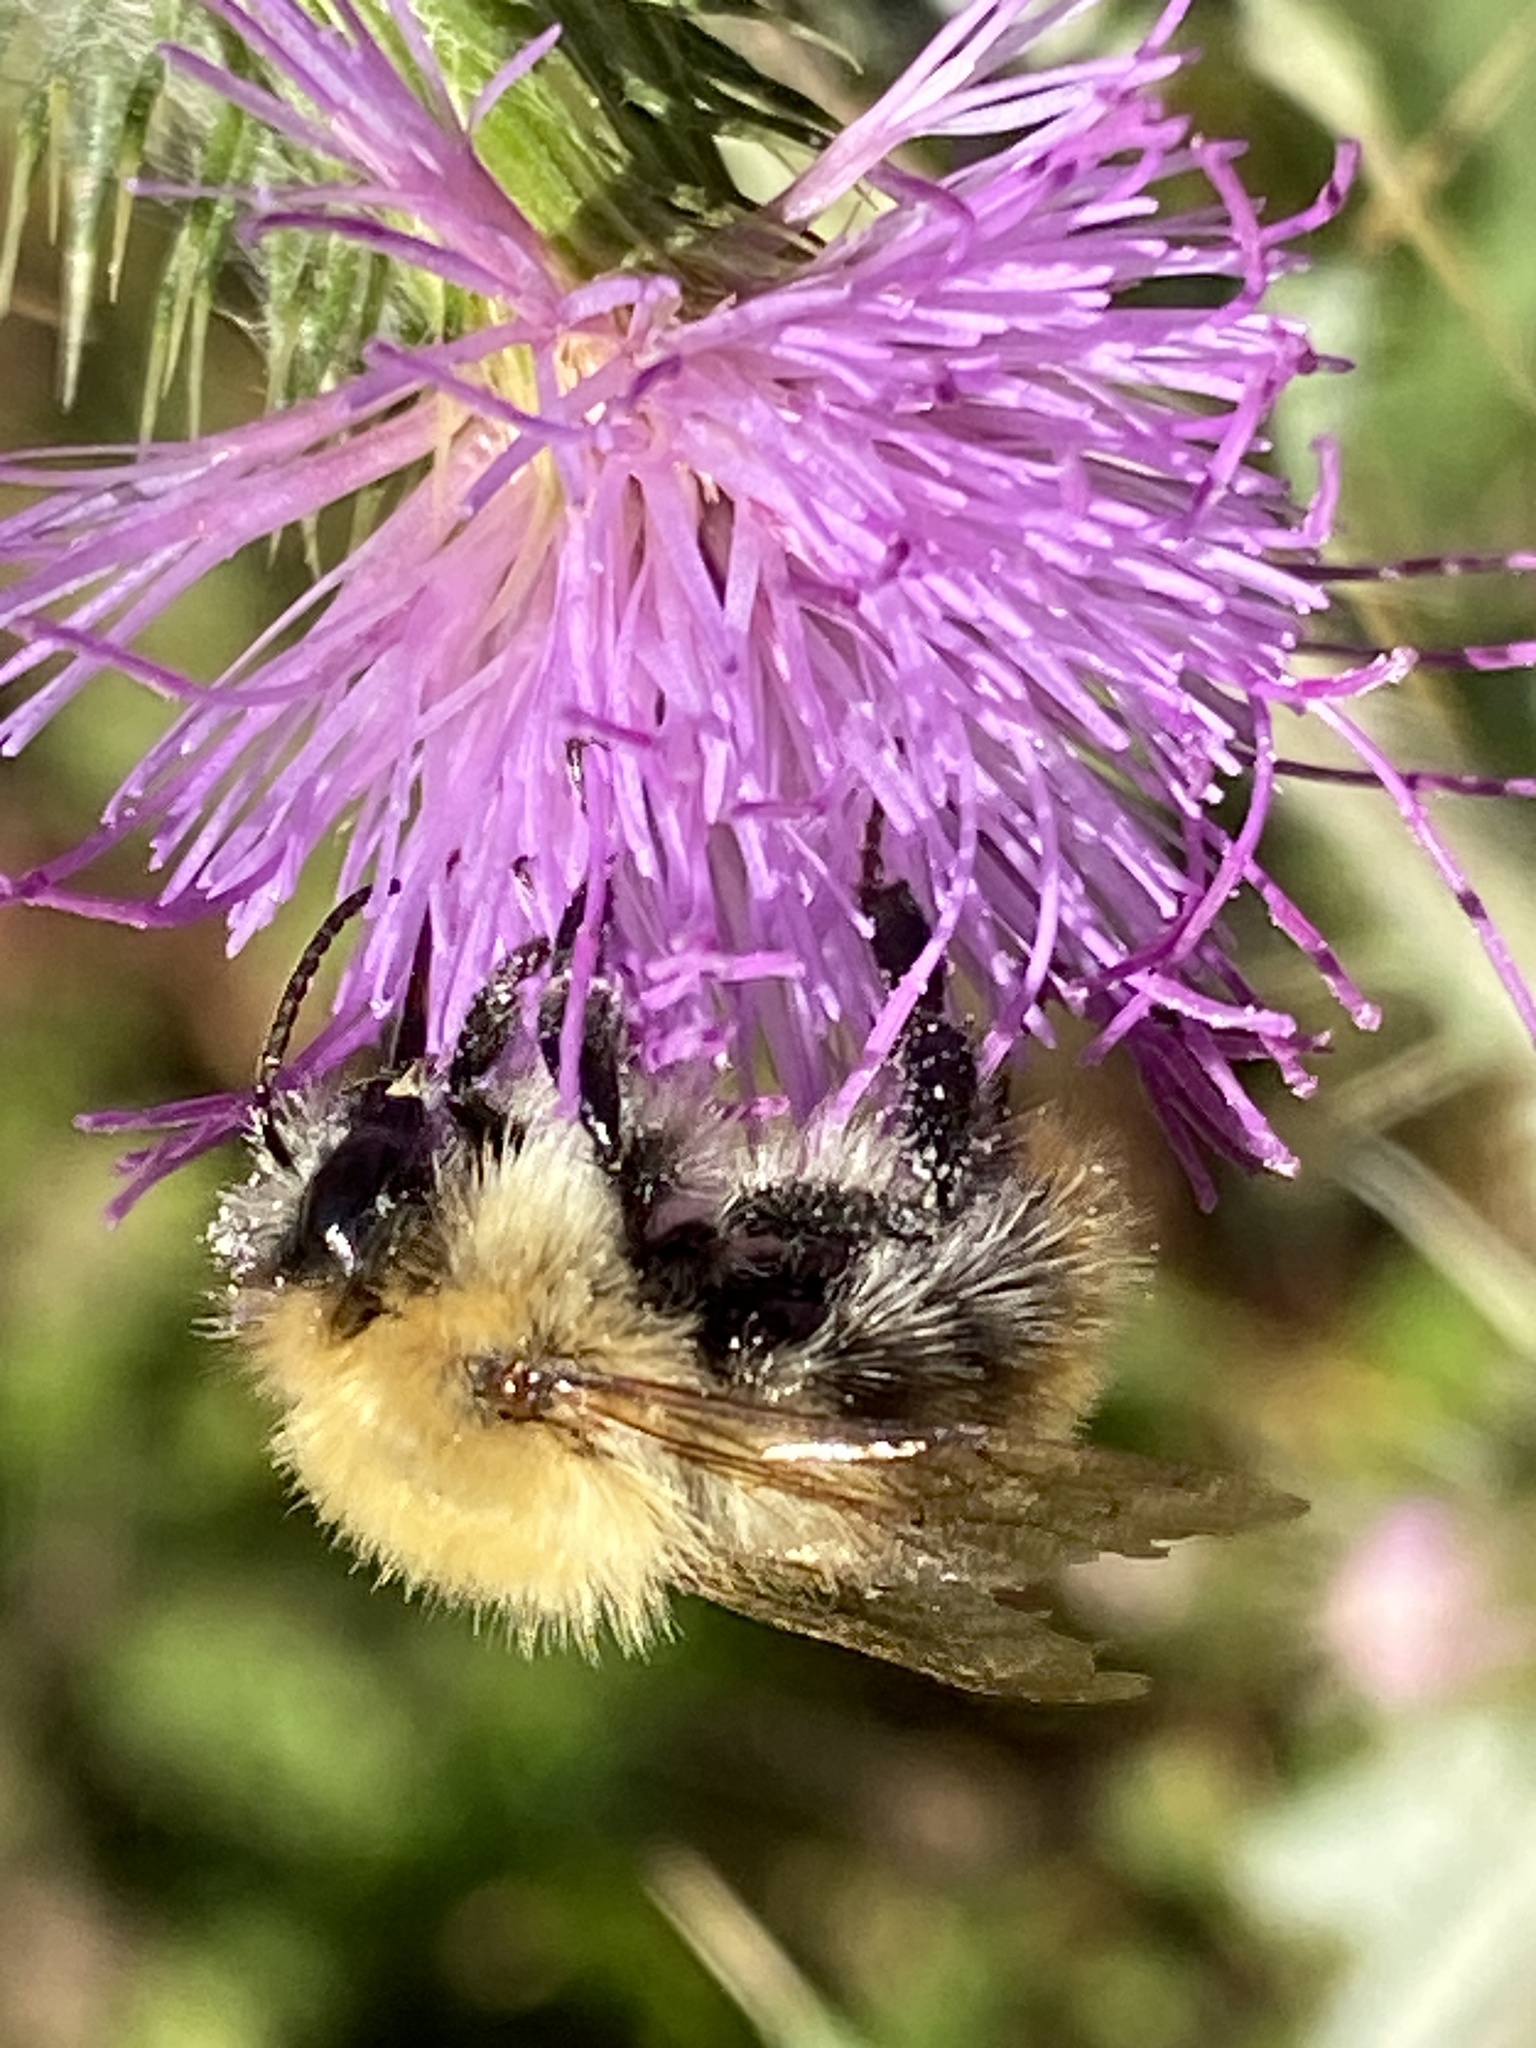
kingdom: Animalia
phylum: Arthropoda
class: Insecta
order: Hymenoptera
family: Apidae
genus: Bombus
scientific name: Bombus pascuorum
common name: Common carder bee
